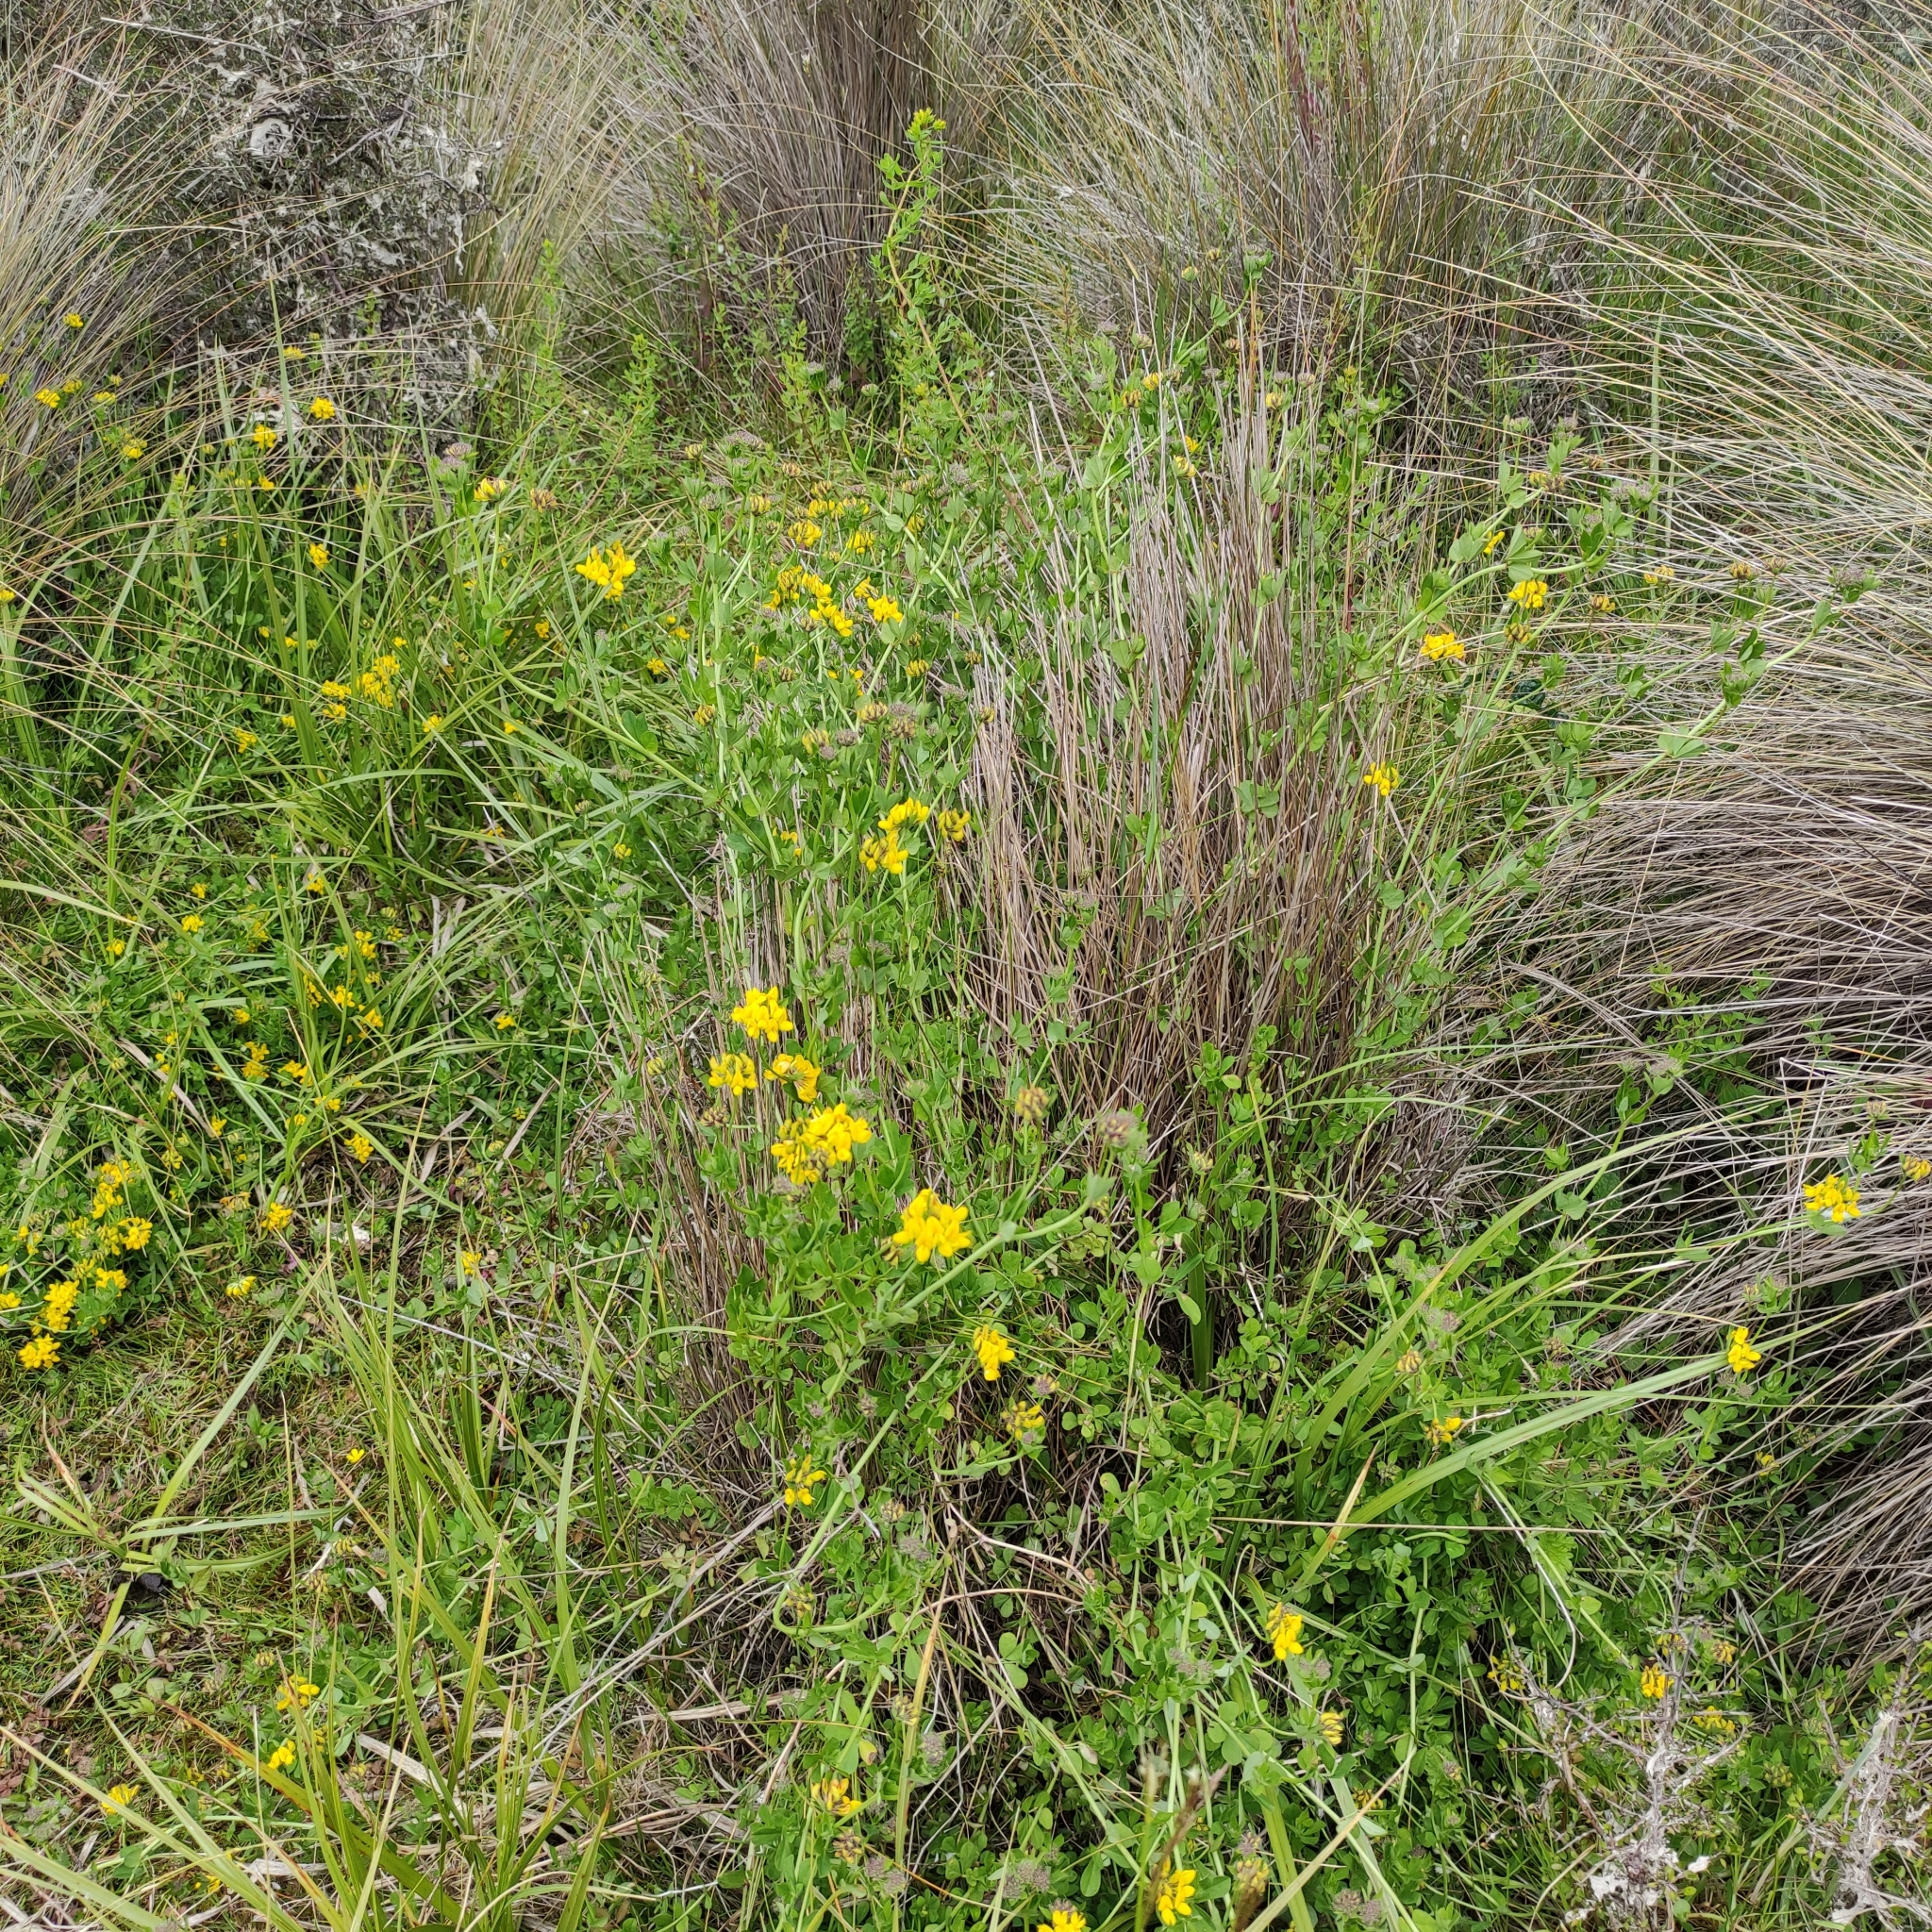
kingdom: Plantae
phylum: Tracheophyta
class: Magnoliopsida
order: Fabales
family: Fabaceae
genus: Lotus
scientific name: Lotus pedunculatus
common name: Greater birdsfoot-trefoil
